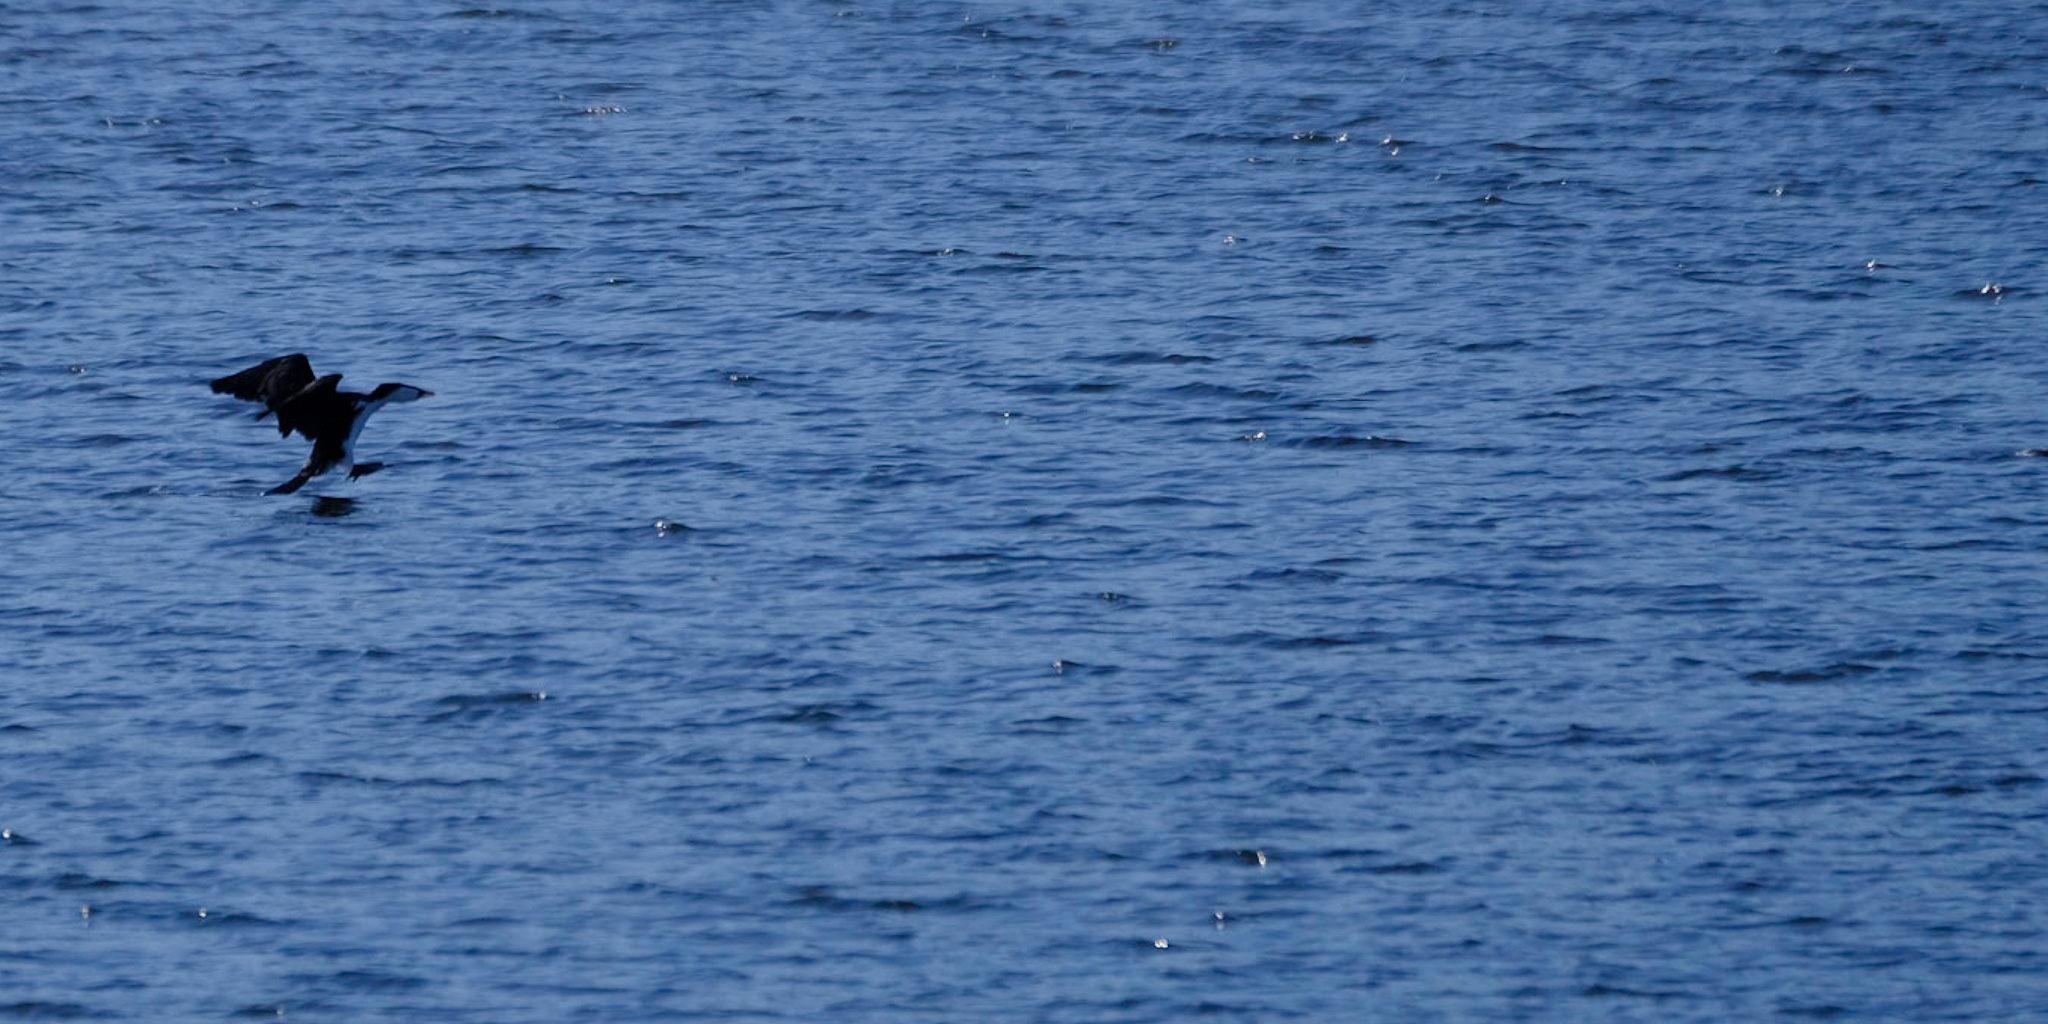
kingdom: Animalia
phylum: Chordata
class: Aves
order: Suliformes
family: Phalacrocoracidae
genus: Microcarbo
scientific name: Microcarbo melanoleucos
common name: Little pied cormorant
